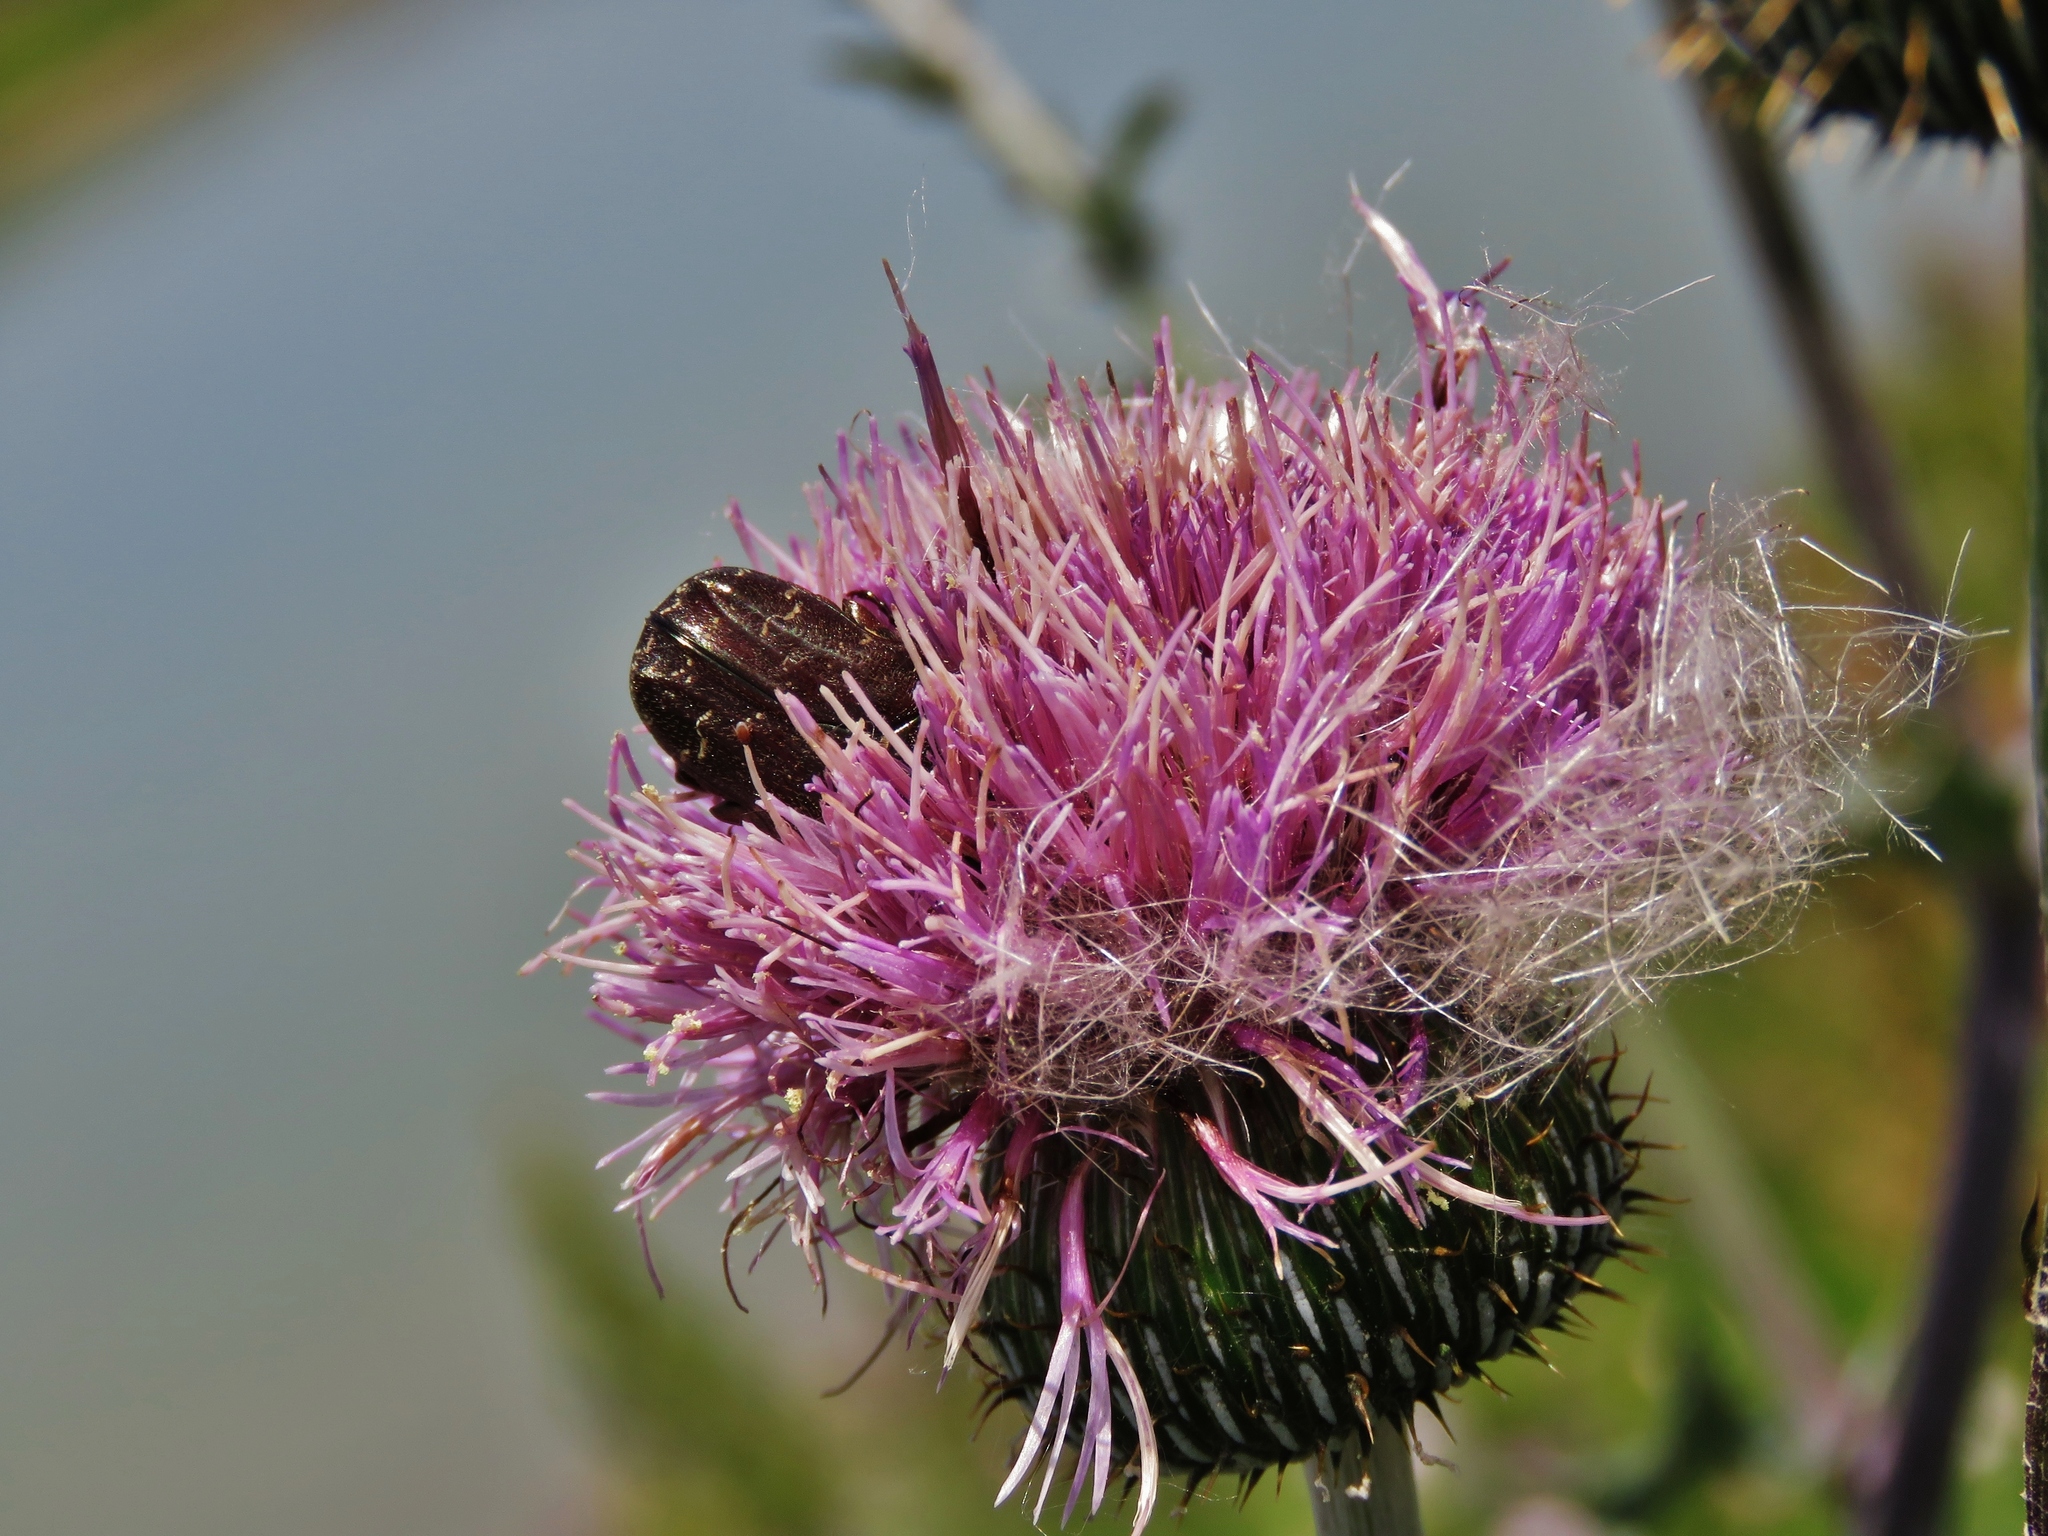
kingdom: Animalia
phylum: Arthropoda
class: Insecta
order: Coleoptera
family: Scarabaeidae
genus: Euphoria
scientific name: Euphoria sepulcralis
